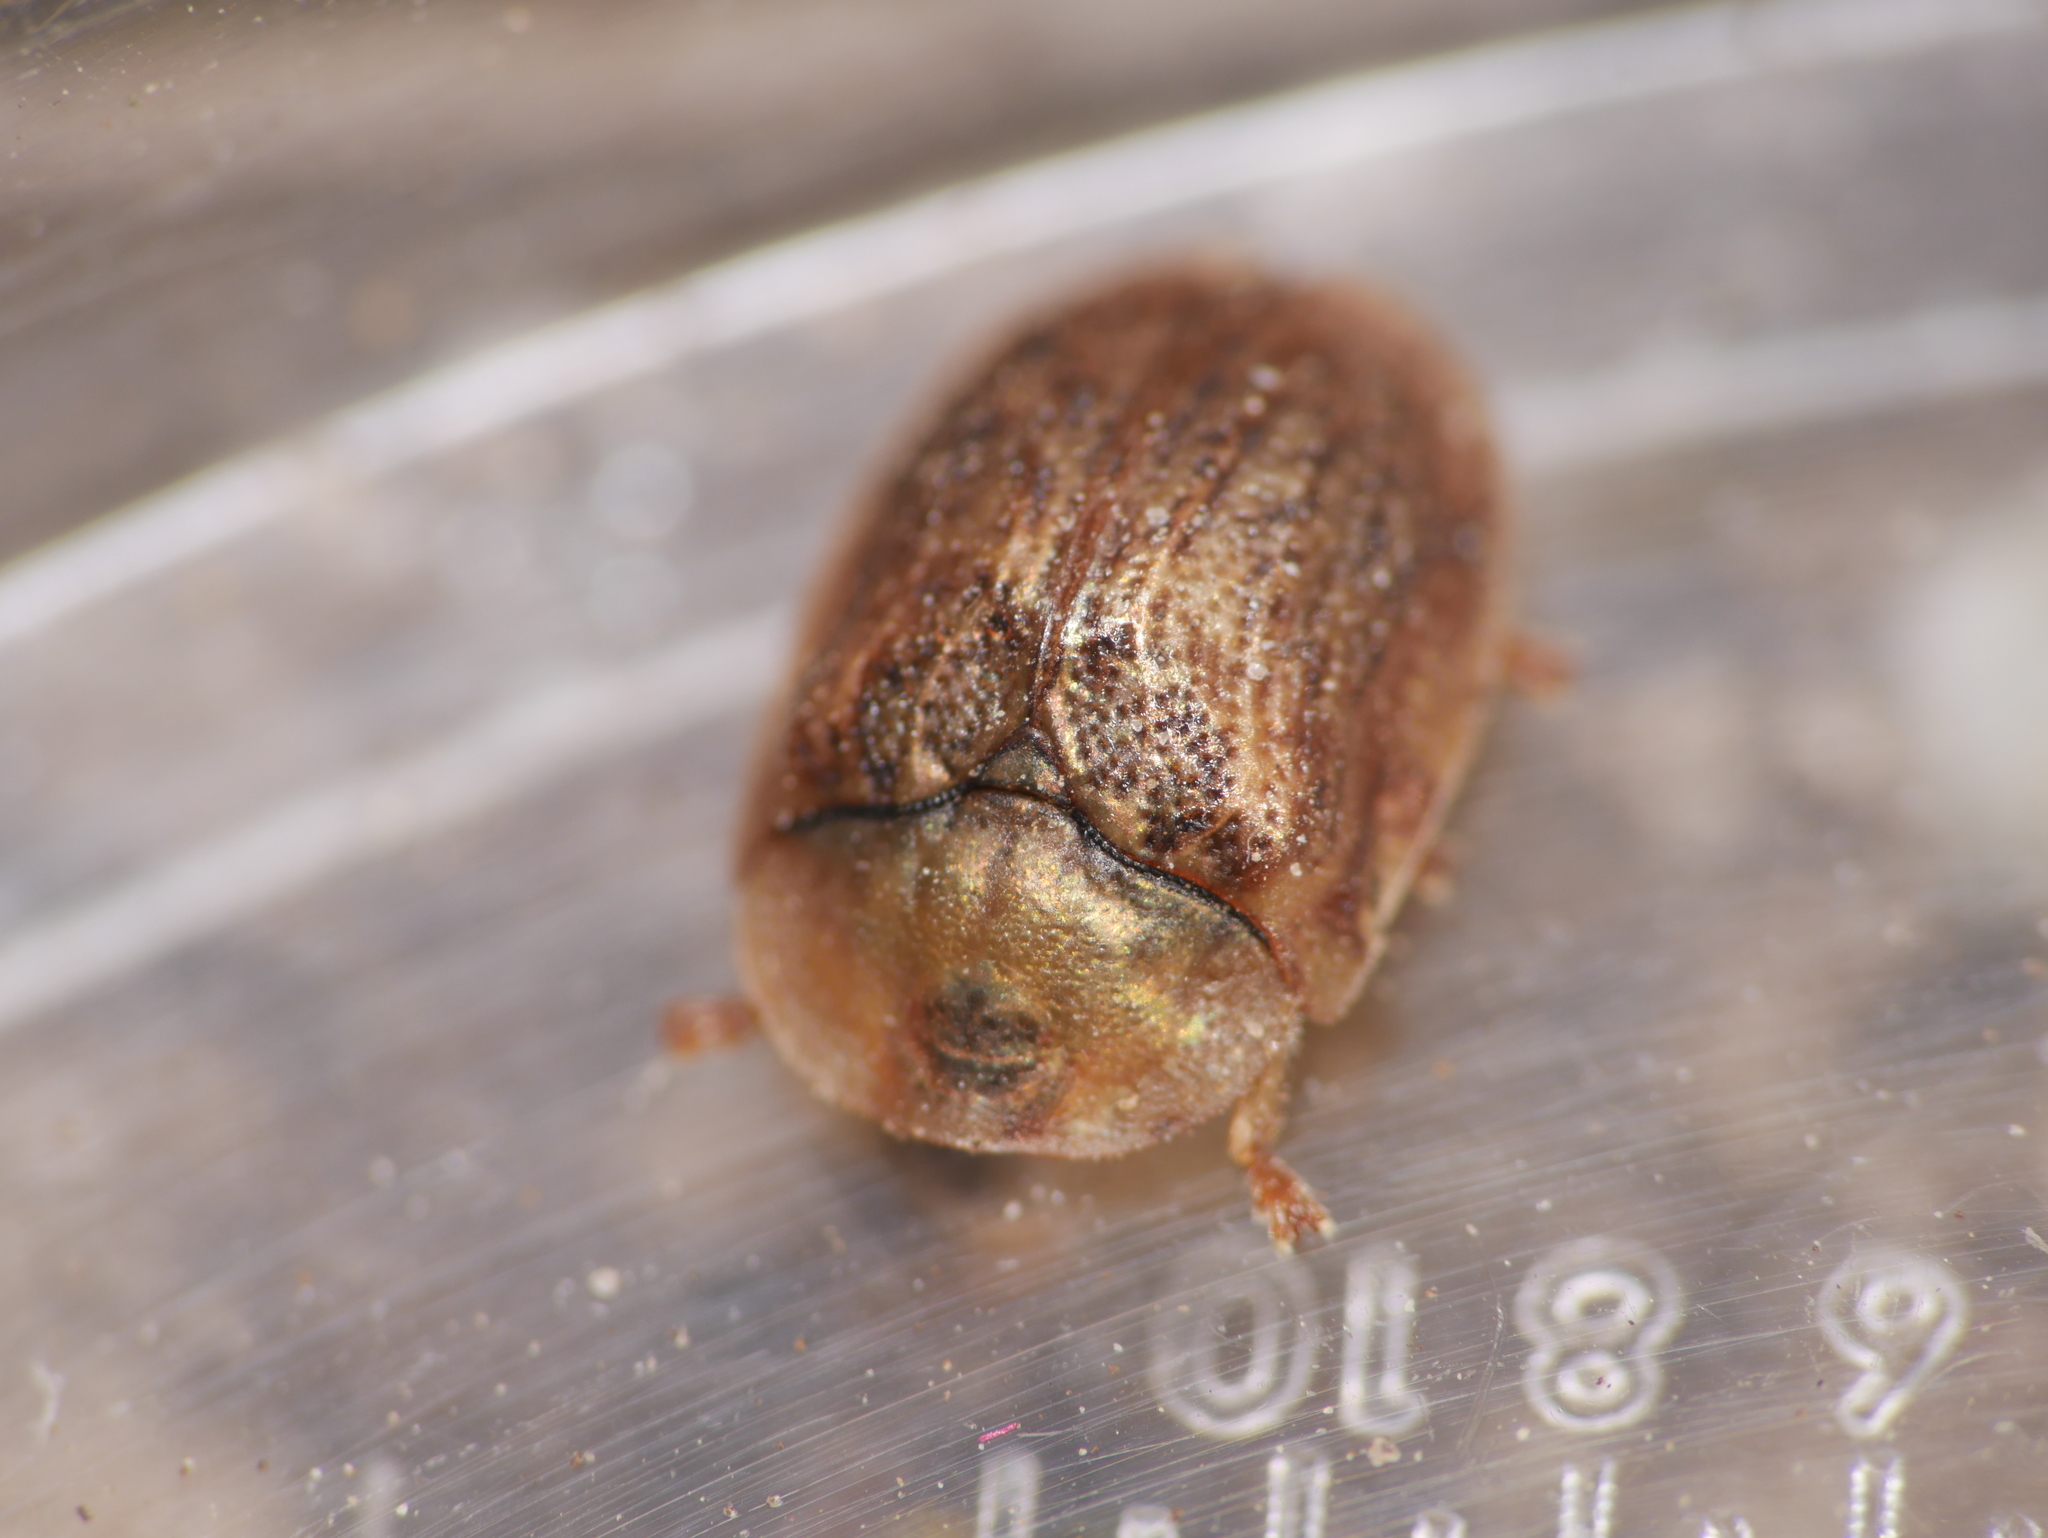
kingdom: Animalia
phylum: Arthropoda
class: Insecta
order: Coleoptera
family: Chrysomelidae
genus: Hypocassida
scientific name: Hypocassida subferruginea
